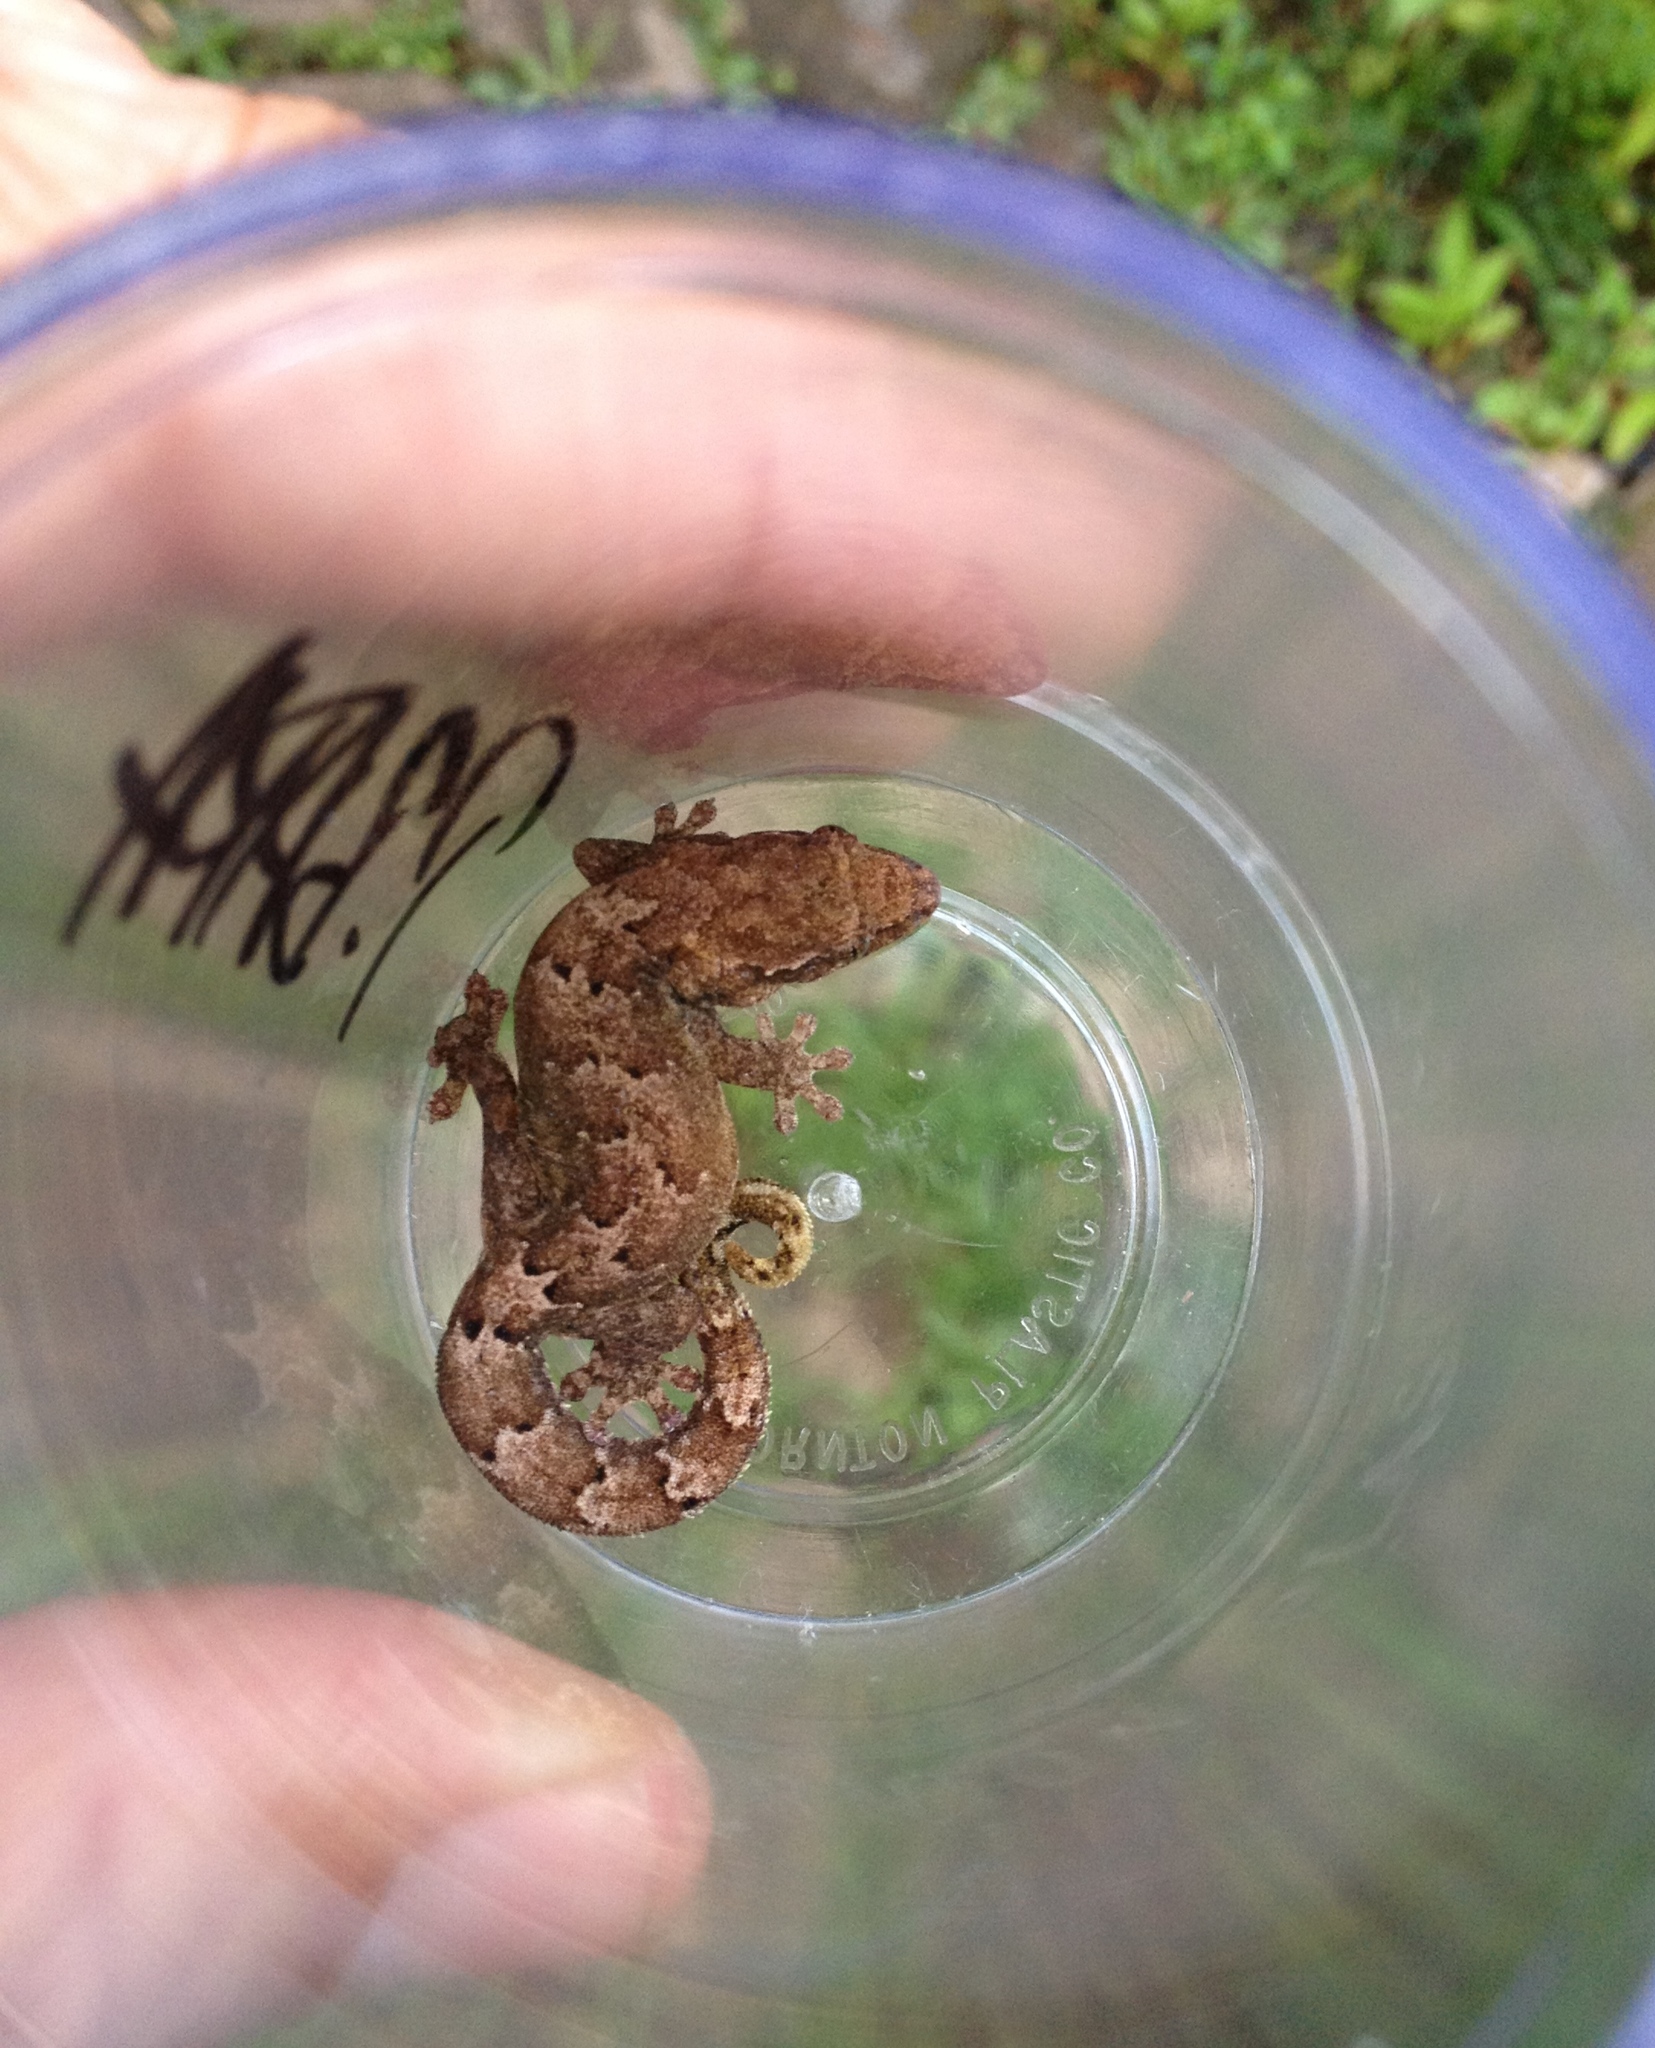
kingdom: Animalia
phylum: Chordata
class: Squamata
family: Gekkonidae
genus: Lepidodactylus
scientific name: Lepidodactylus lugubris
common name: Mourning gecko
